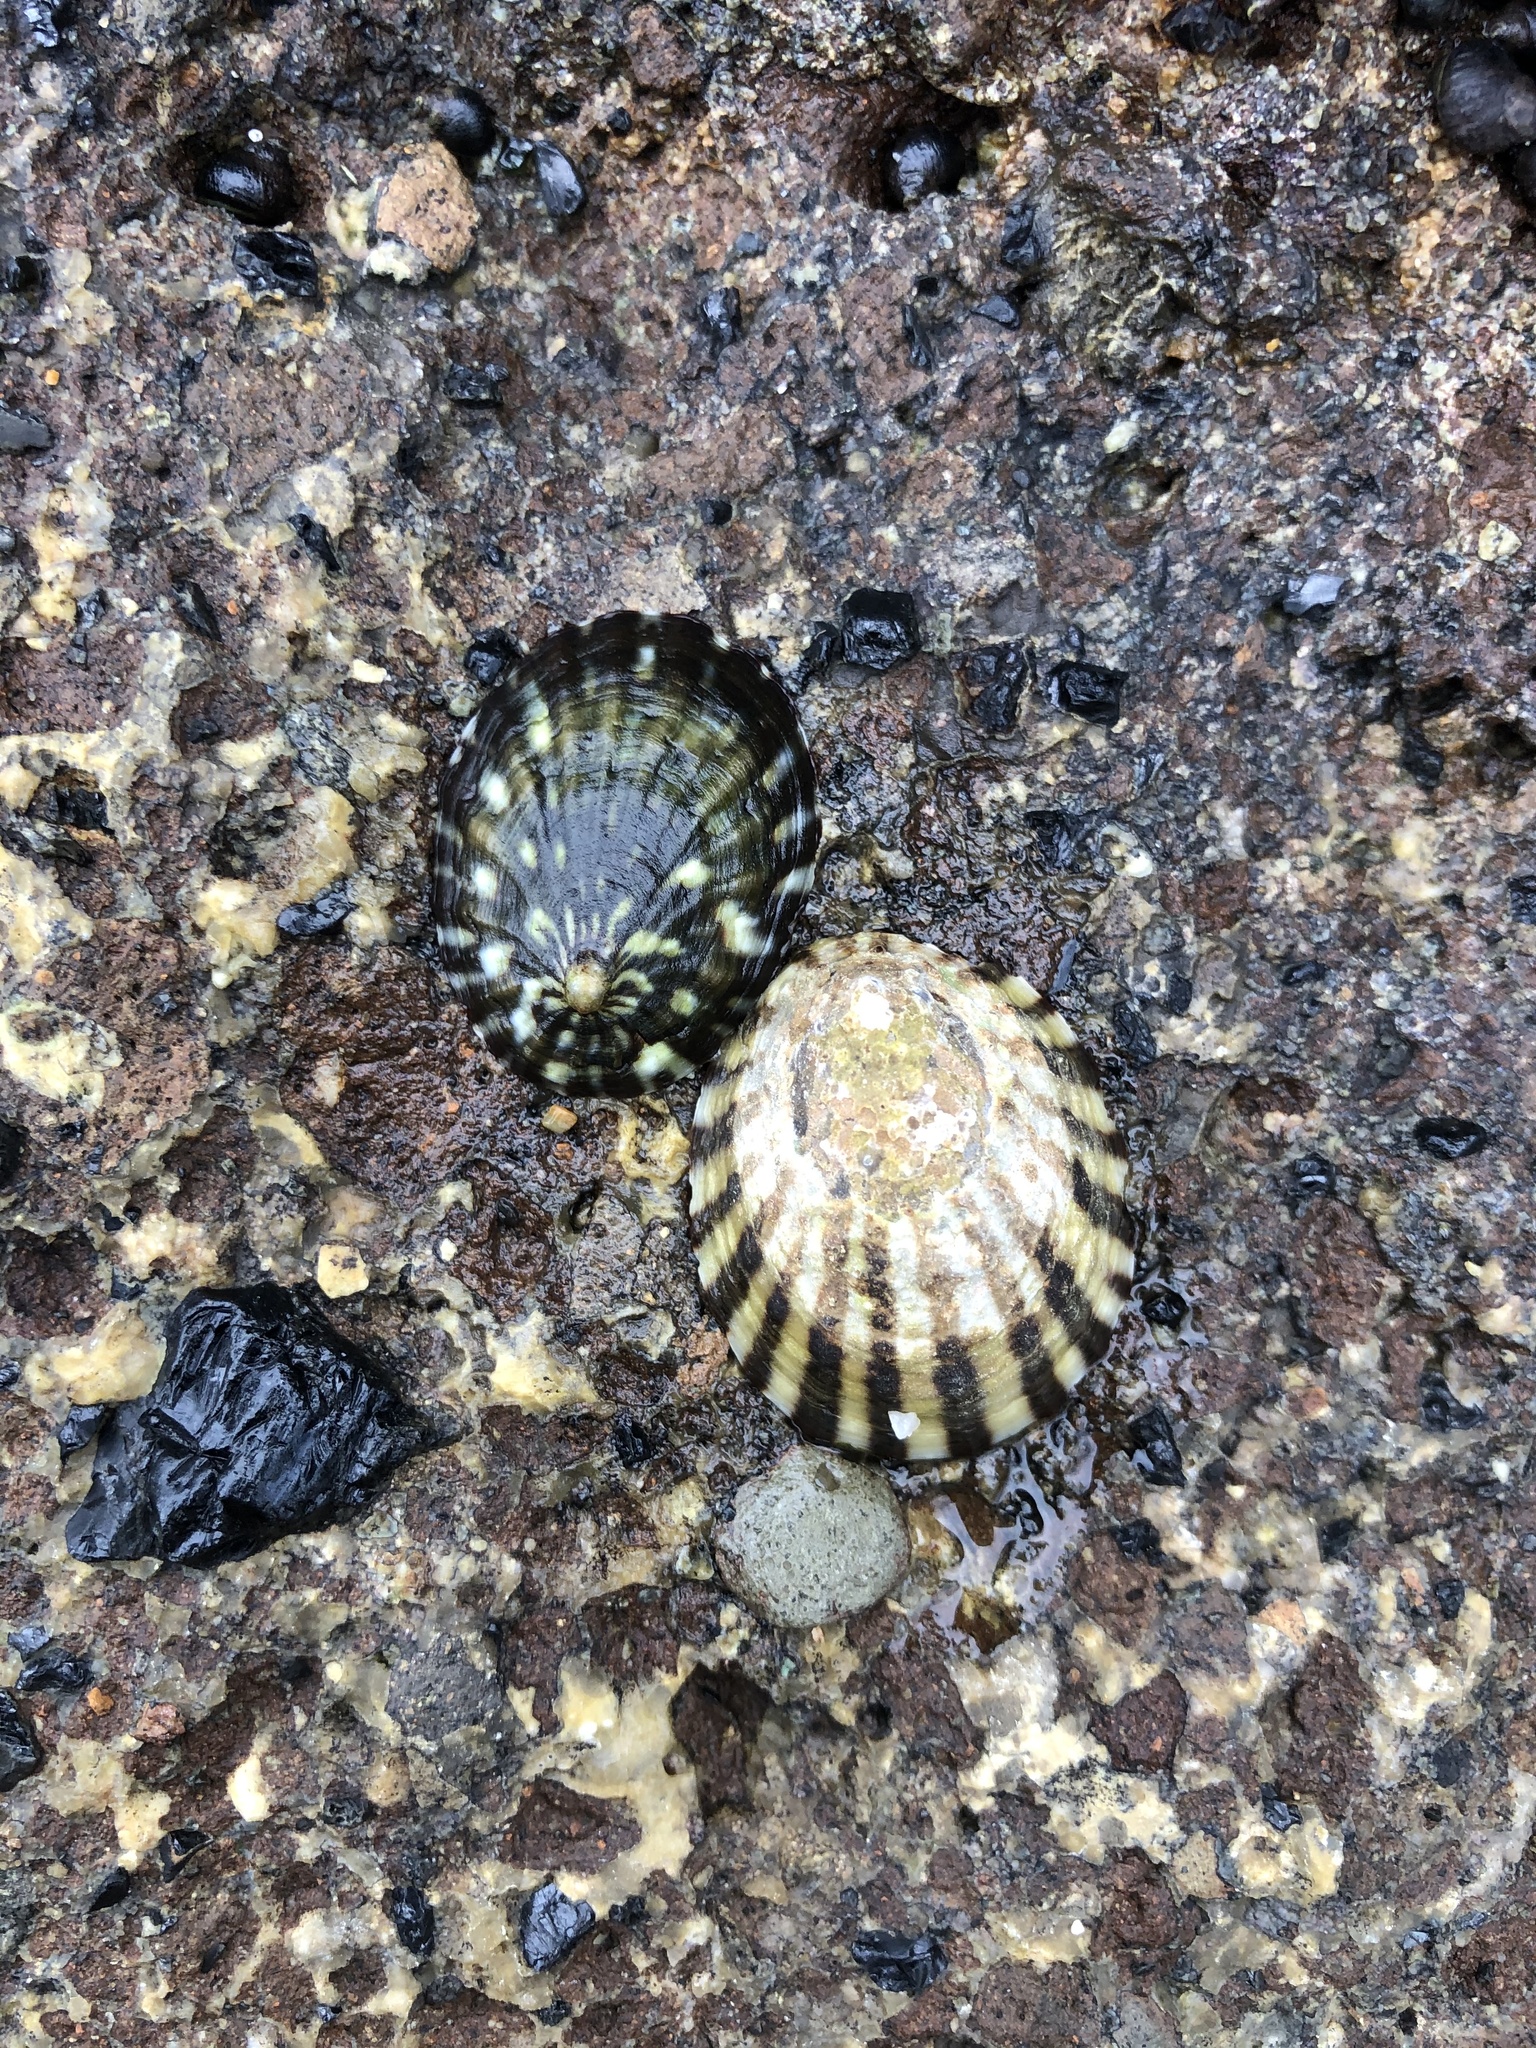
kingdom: Animalia
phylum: Mollusca
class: Gastropoda
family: Nacellidae
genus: Cellana
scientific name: Cellana strigilis
